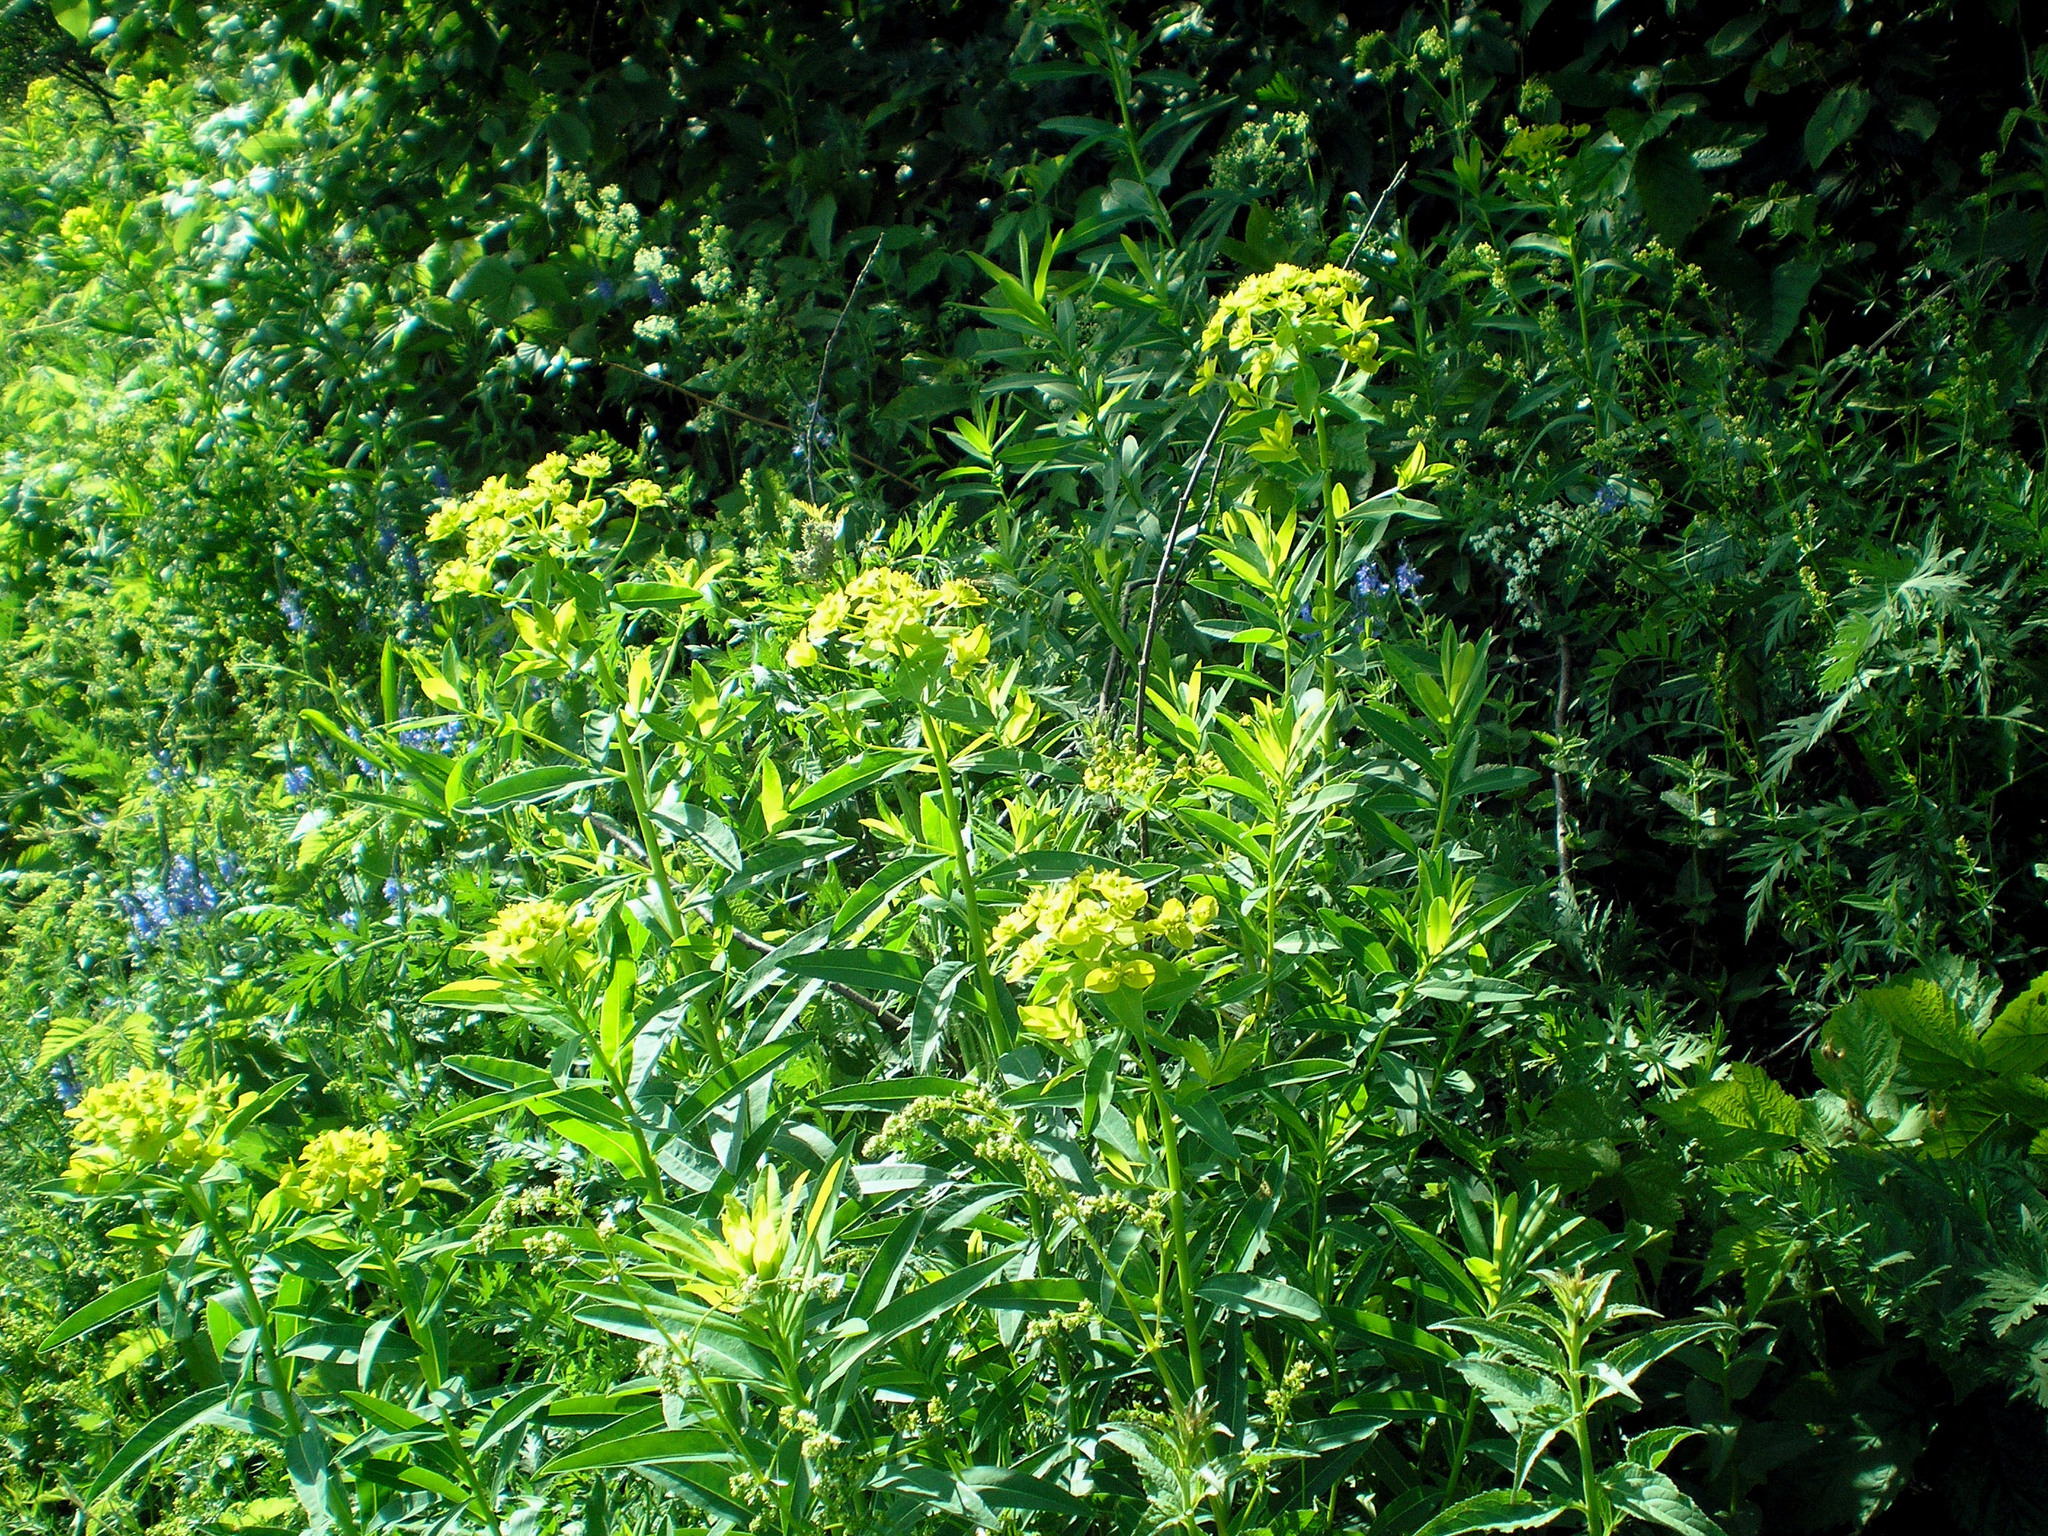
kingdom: Plantae
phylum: Tracheophyta
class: Magnoliopsida
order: Malpighiales
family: Euphorbiaceae
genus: Euphorbia
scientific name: Euphorbia semivillosa
